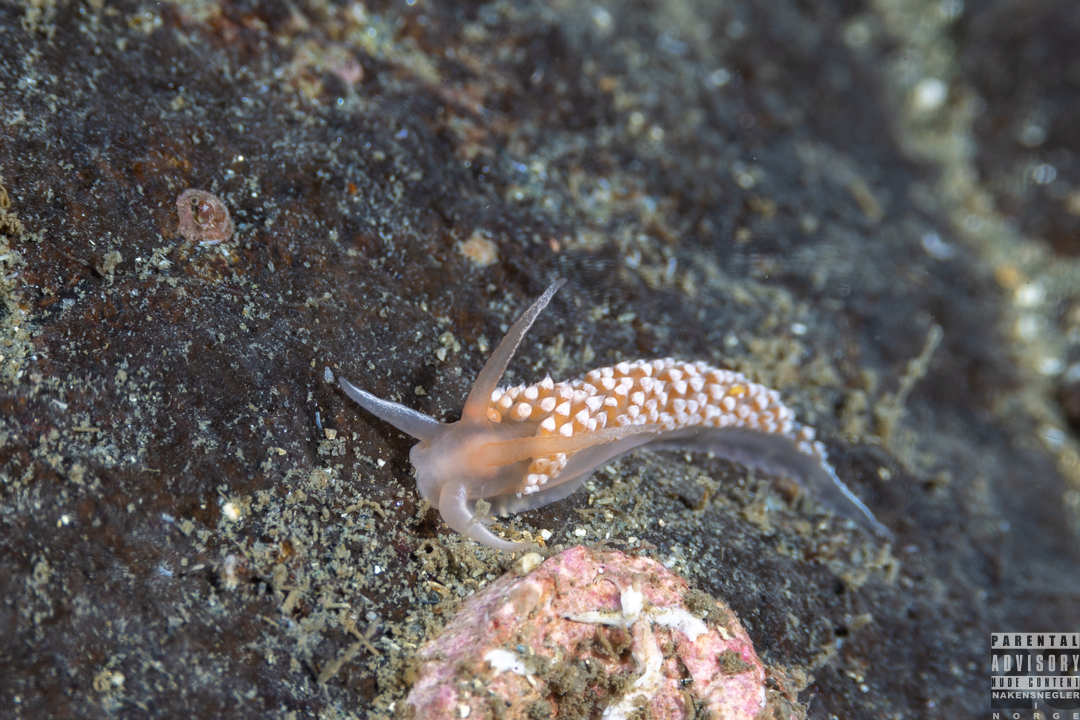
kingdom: Animalia
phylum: Mollusca
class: Gastropoda
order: Nudibranchia
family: Coryphellidae
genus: Coryphella
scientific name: Coryphella verrucosa
